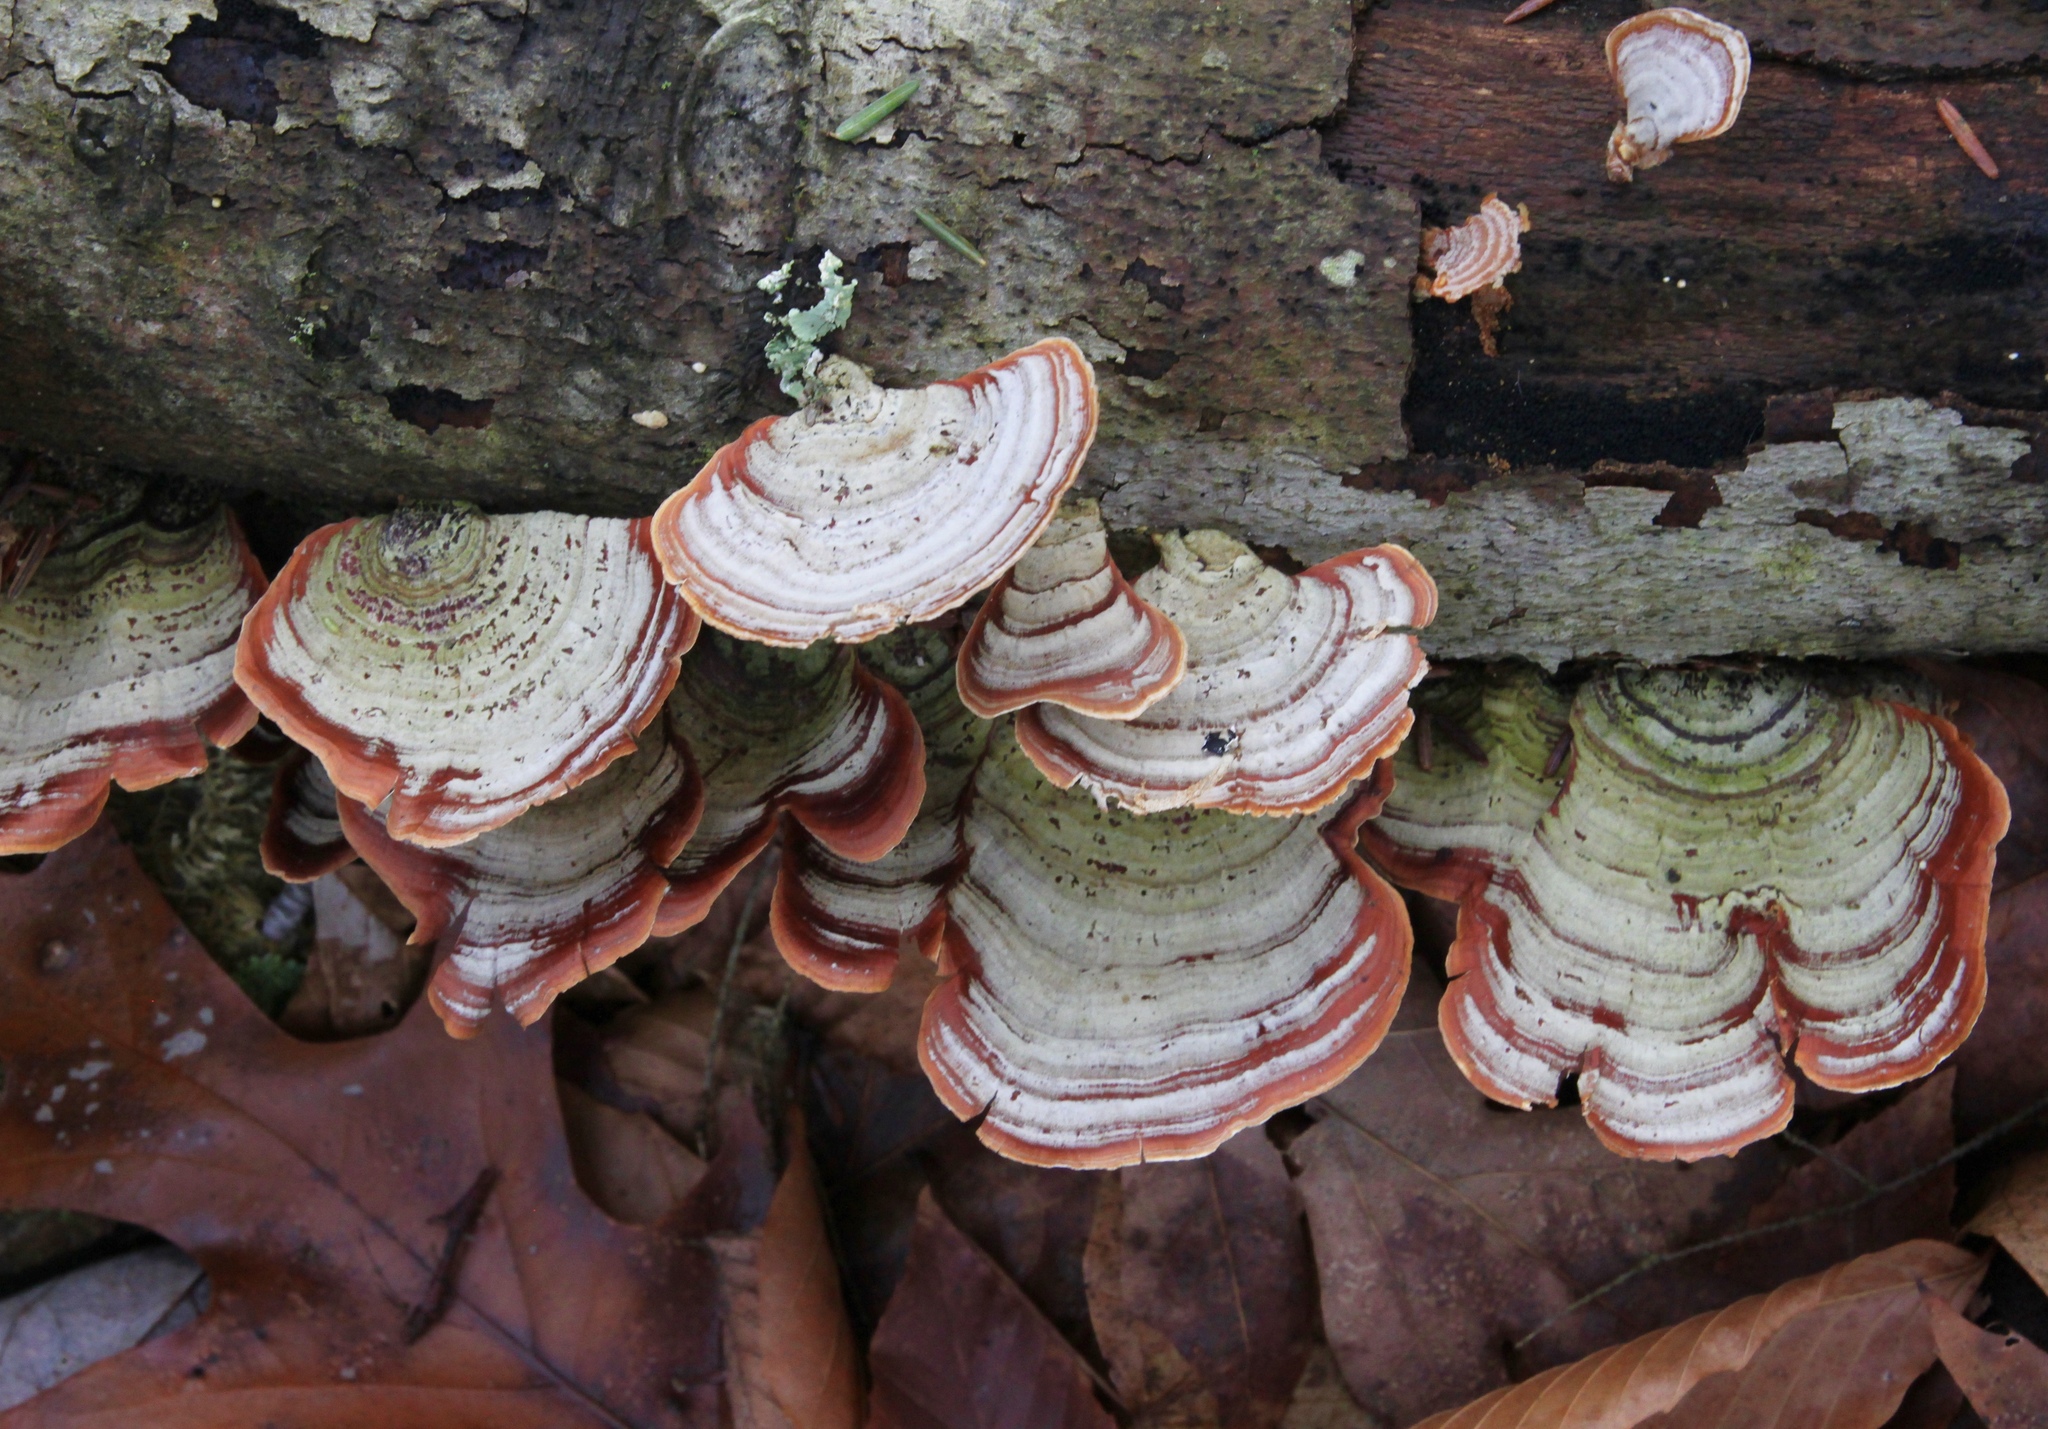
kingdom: Fungi
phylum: Basidiomycota
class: Agaricomycetes
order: Russulales
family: Stereaceae
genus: Stereum
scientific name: Stereum ostrea
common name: False turkeytail
